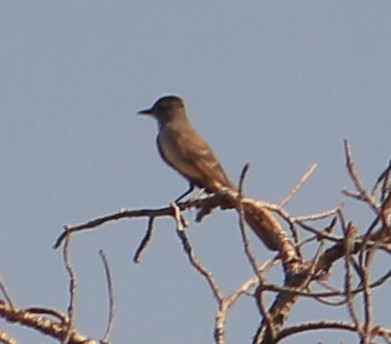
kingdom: Animalia
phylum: Chordata
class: Aves
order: Passeriformes
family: Tyrannidae
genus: Myiarchus
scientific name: Myiarchus cinerascens
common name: Ash-throated flycatcher
